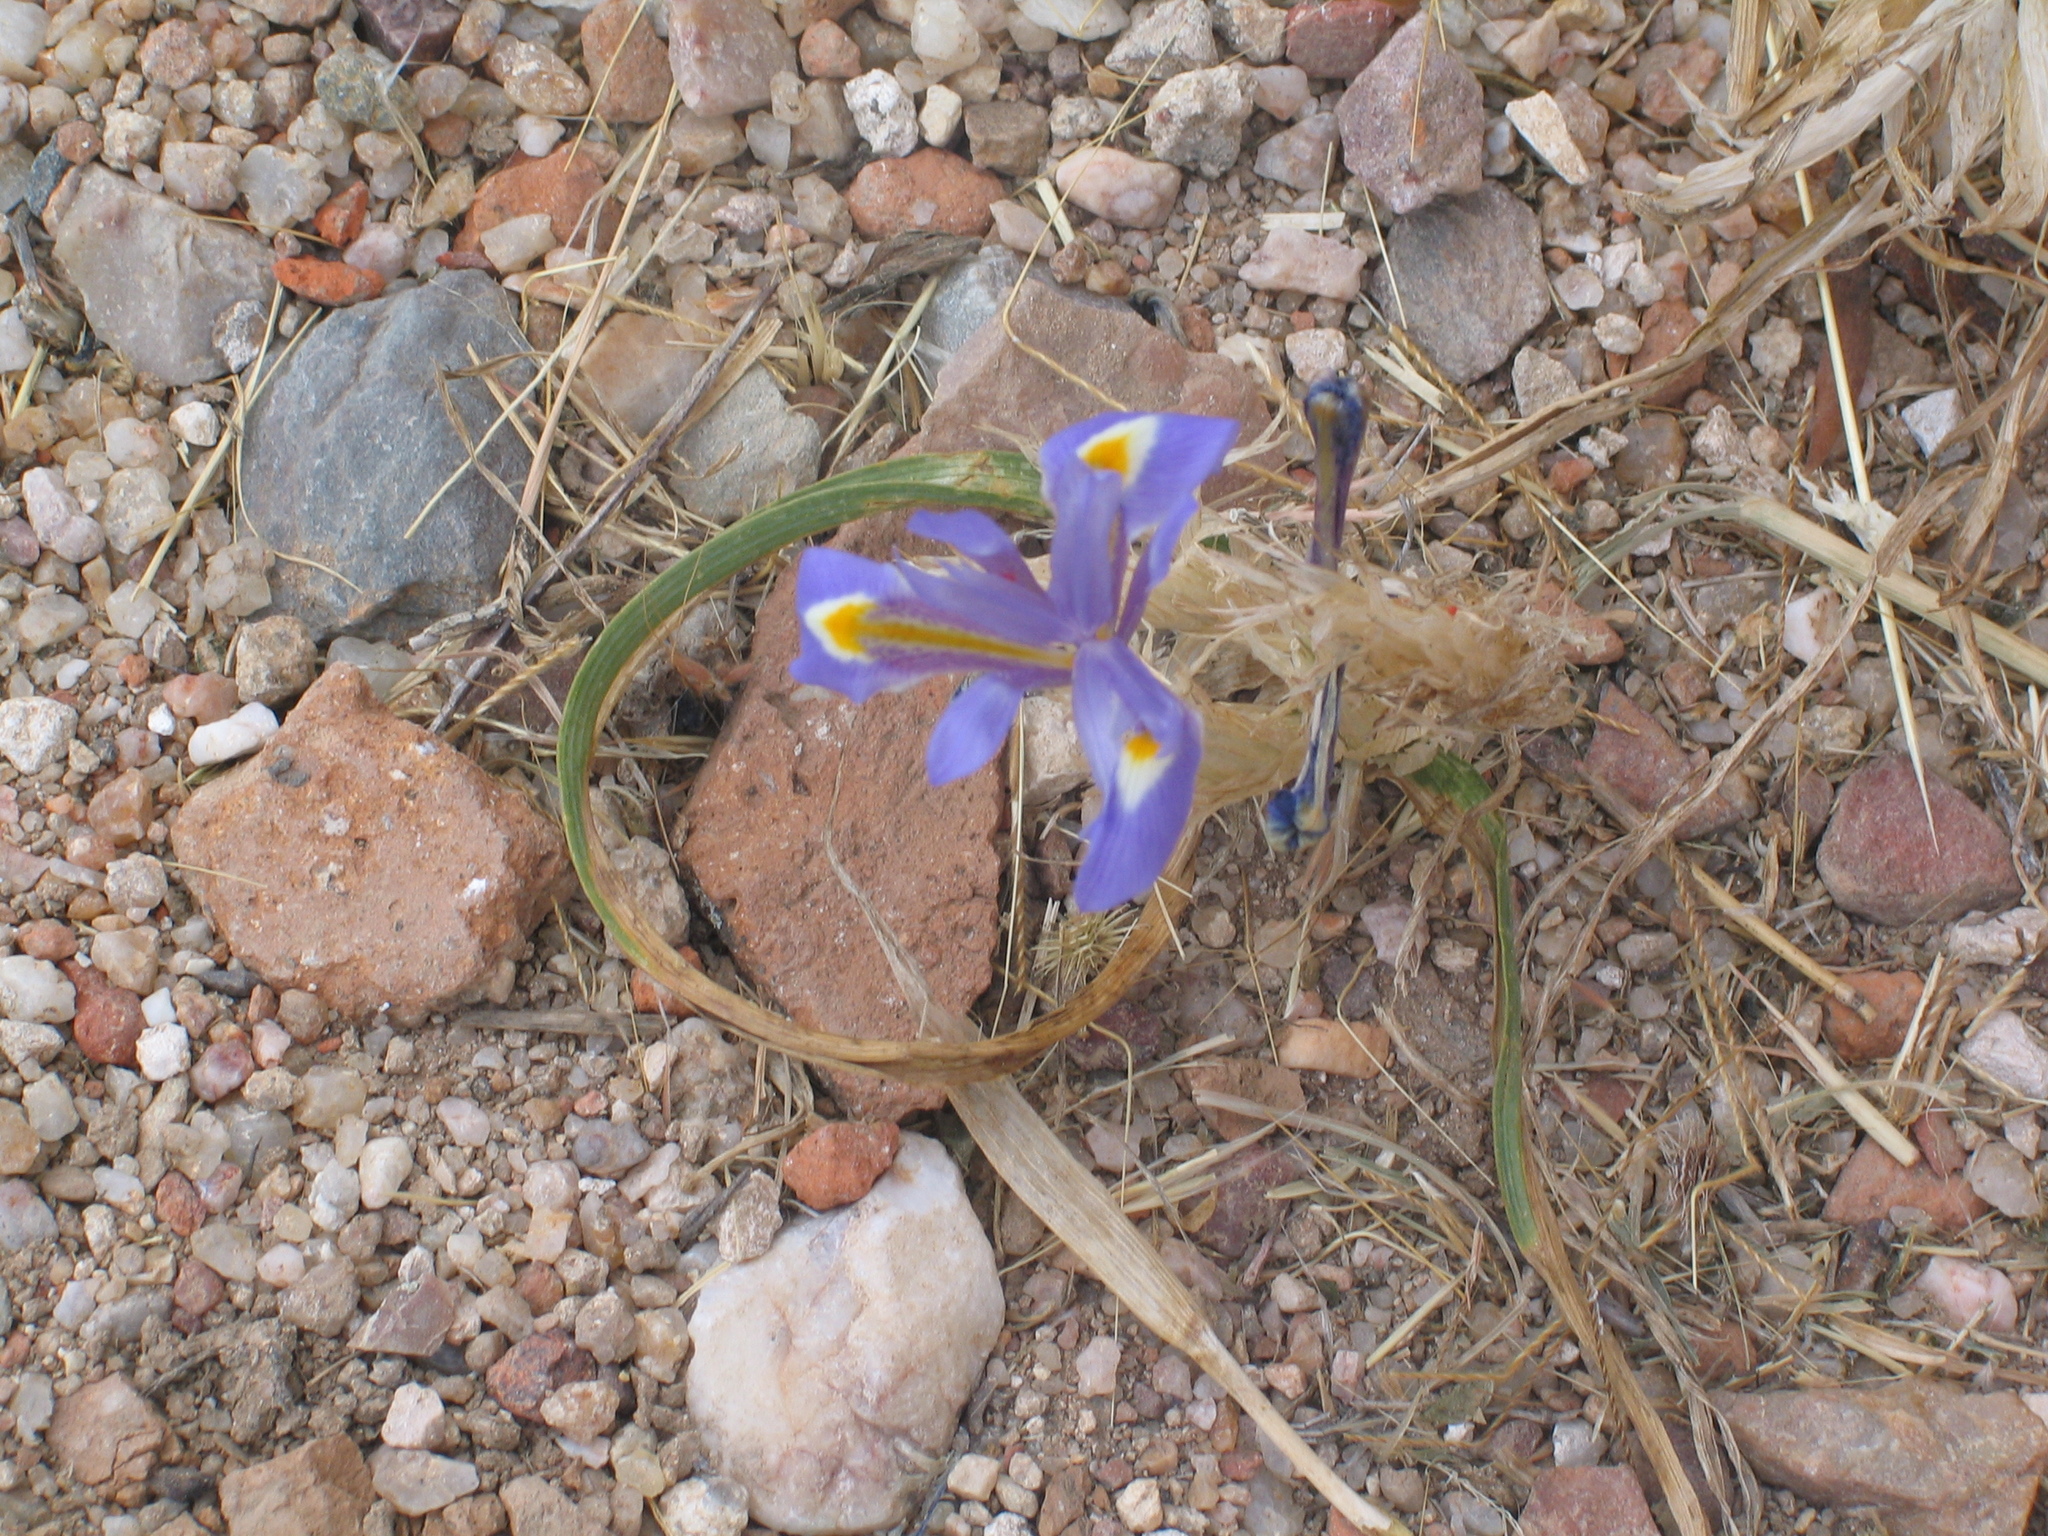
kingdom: Plantae
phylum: Tracheophyta
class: Liliopsida
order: Asparagales
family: Iridaceae
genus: Moraea
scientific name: Moraea sisyrinchium
